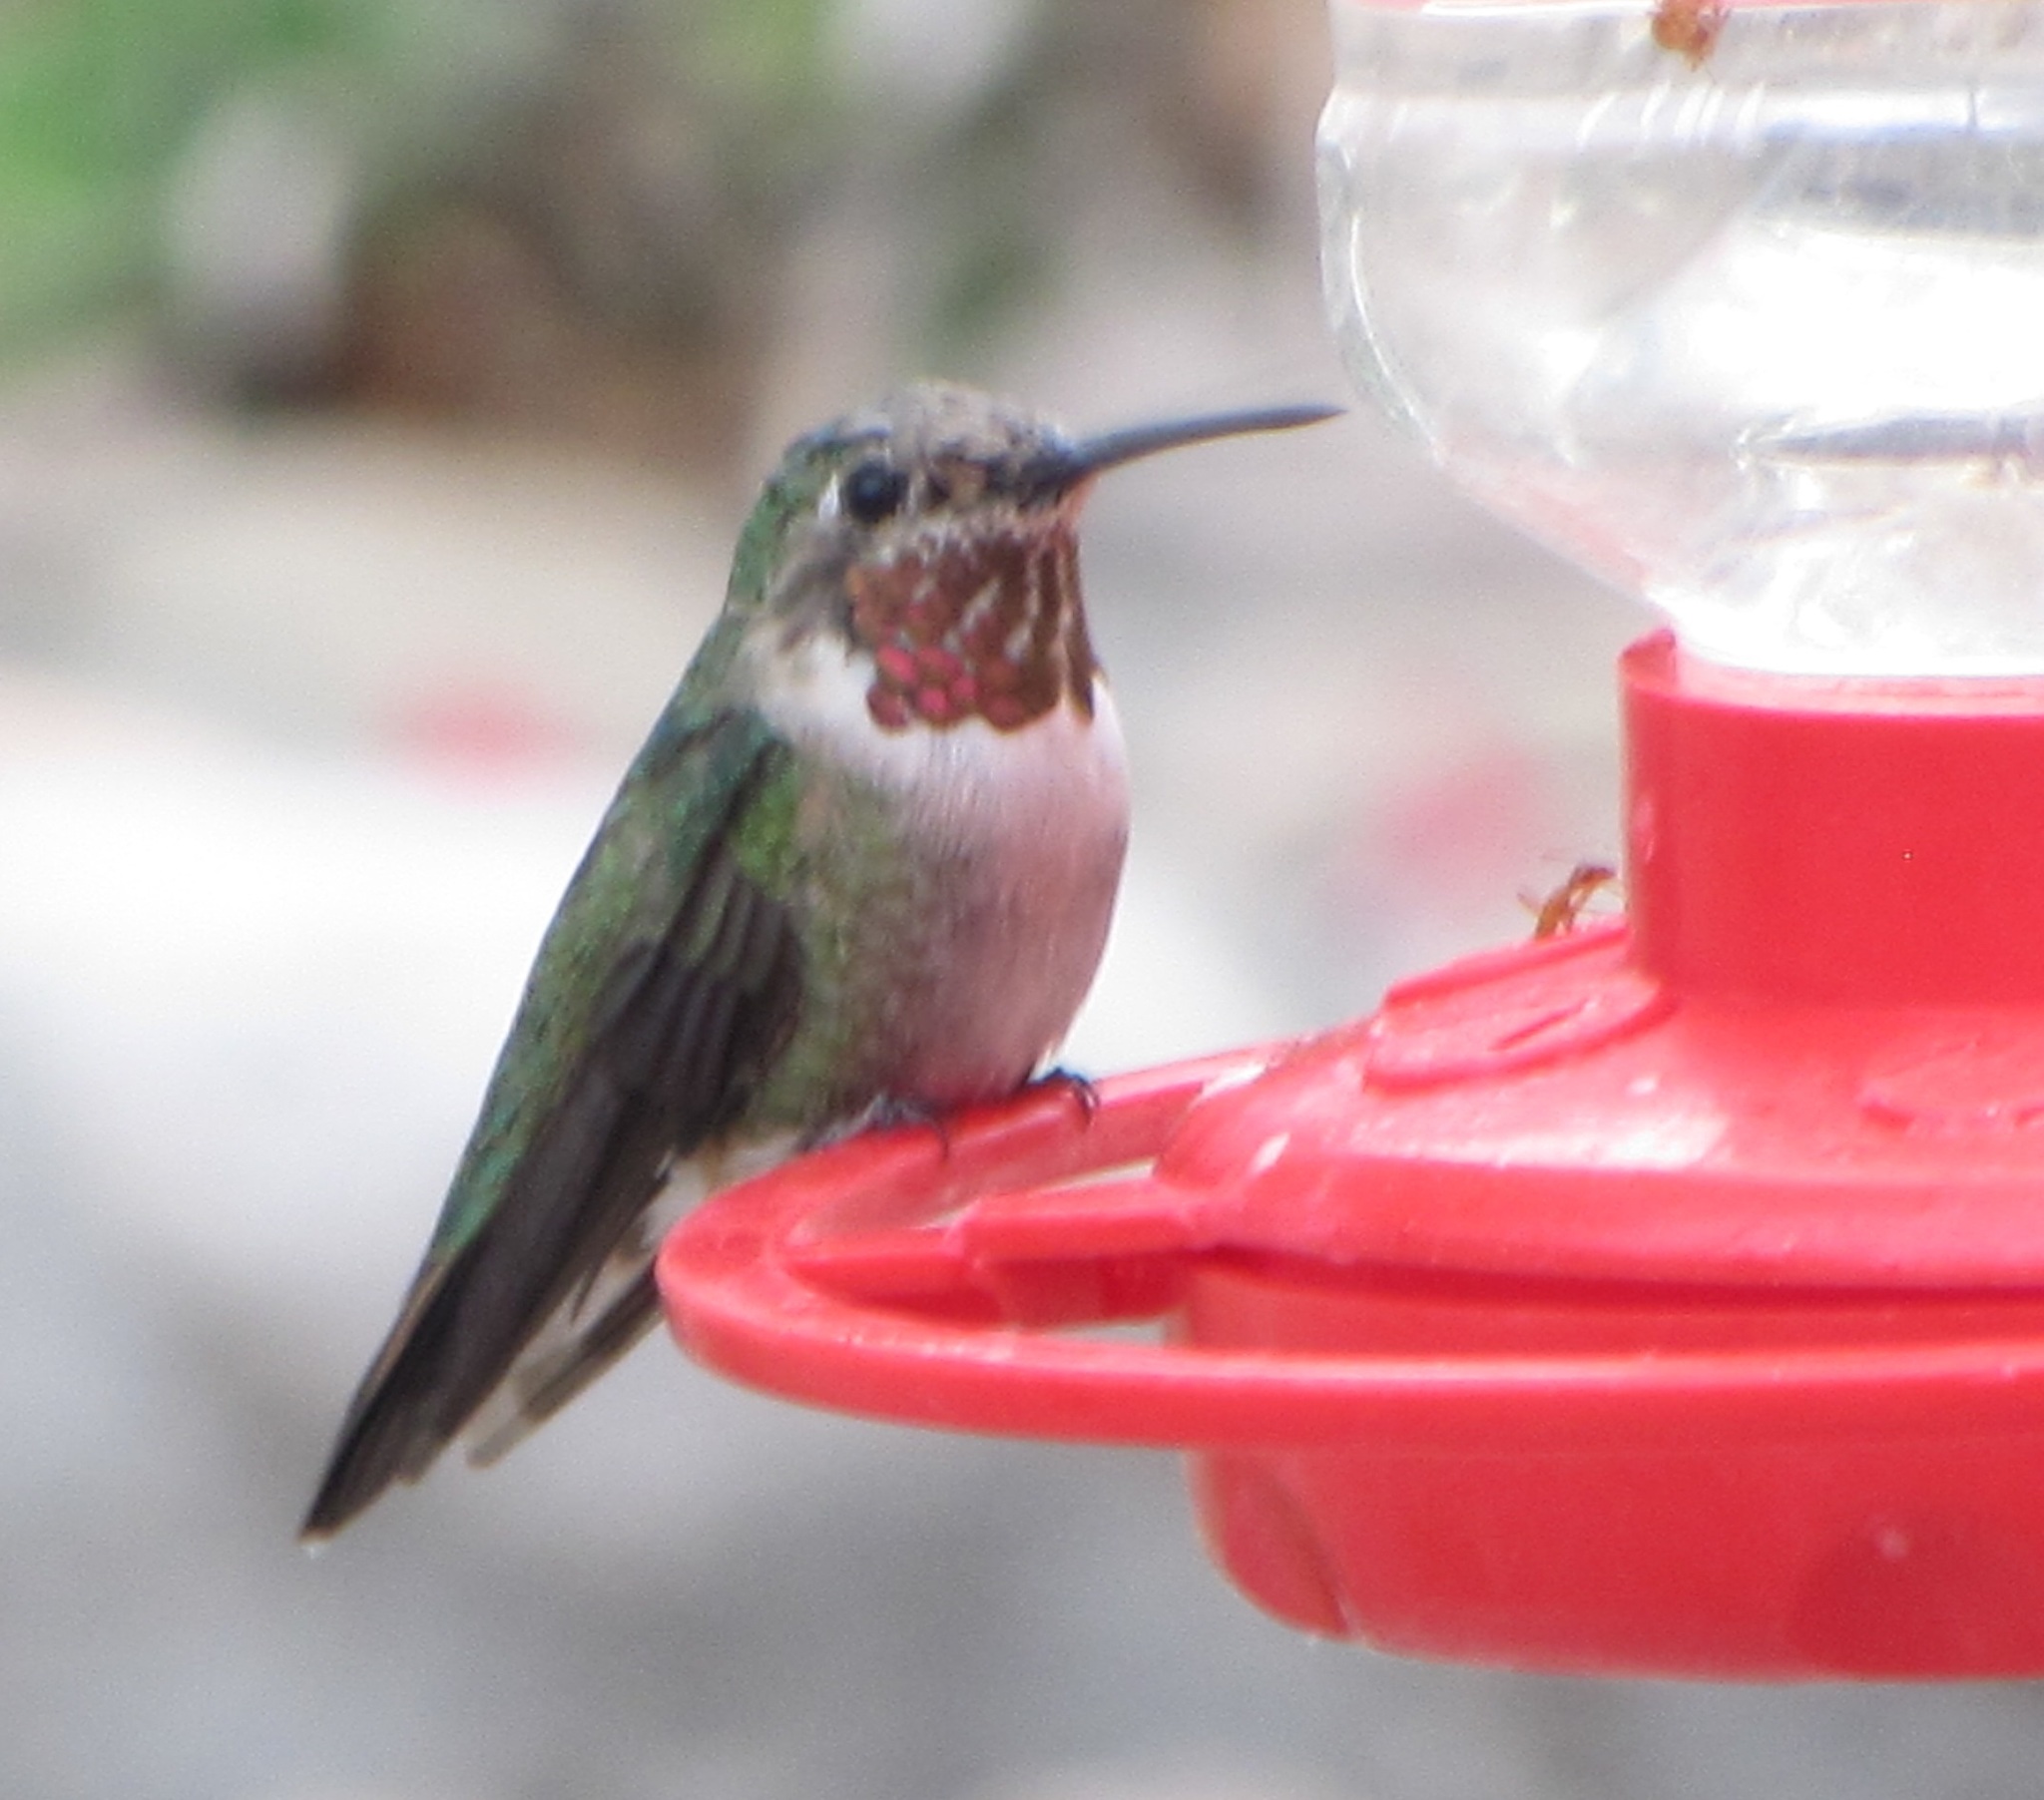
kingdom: Animalia
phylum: Chordata
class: Aves
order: Apodiformes
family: Trochilidae
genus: Selasphorus
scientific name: Selasphorus platycercus
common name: Broad-tailed hummingbird
